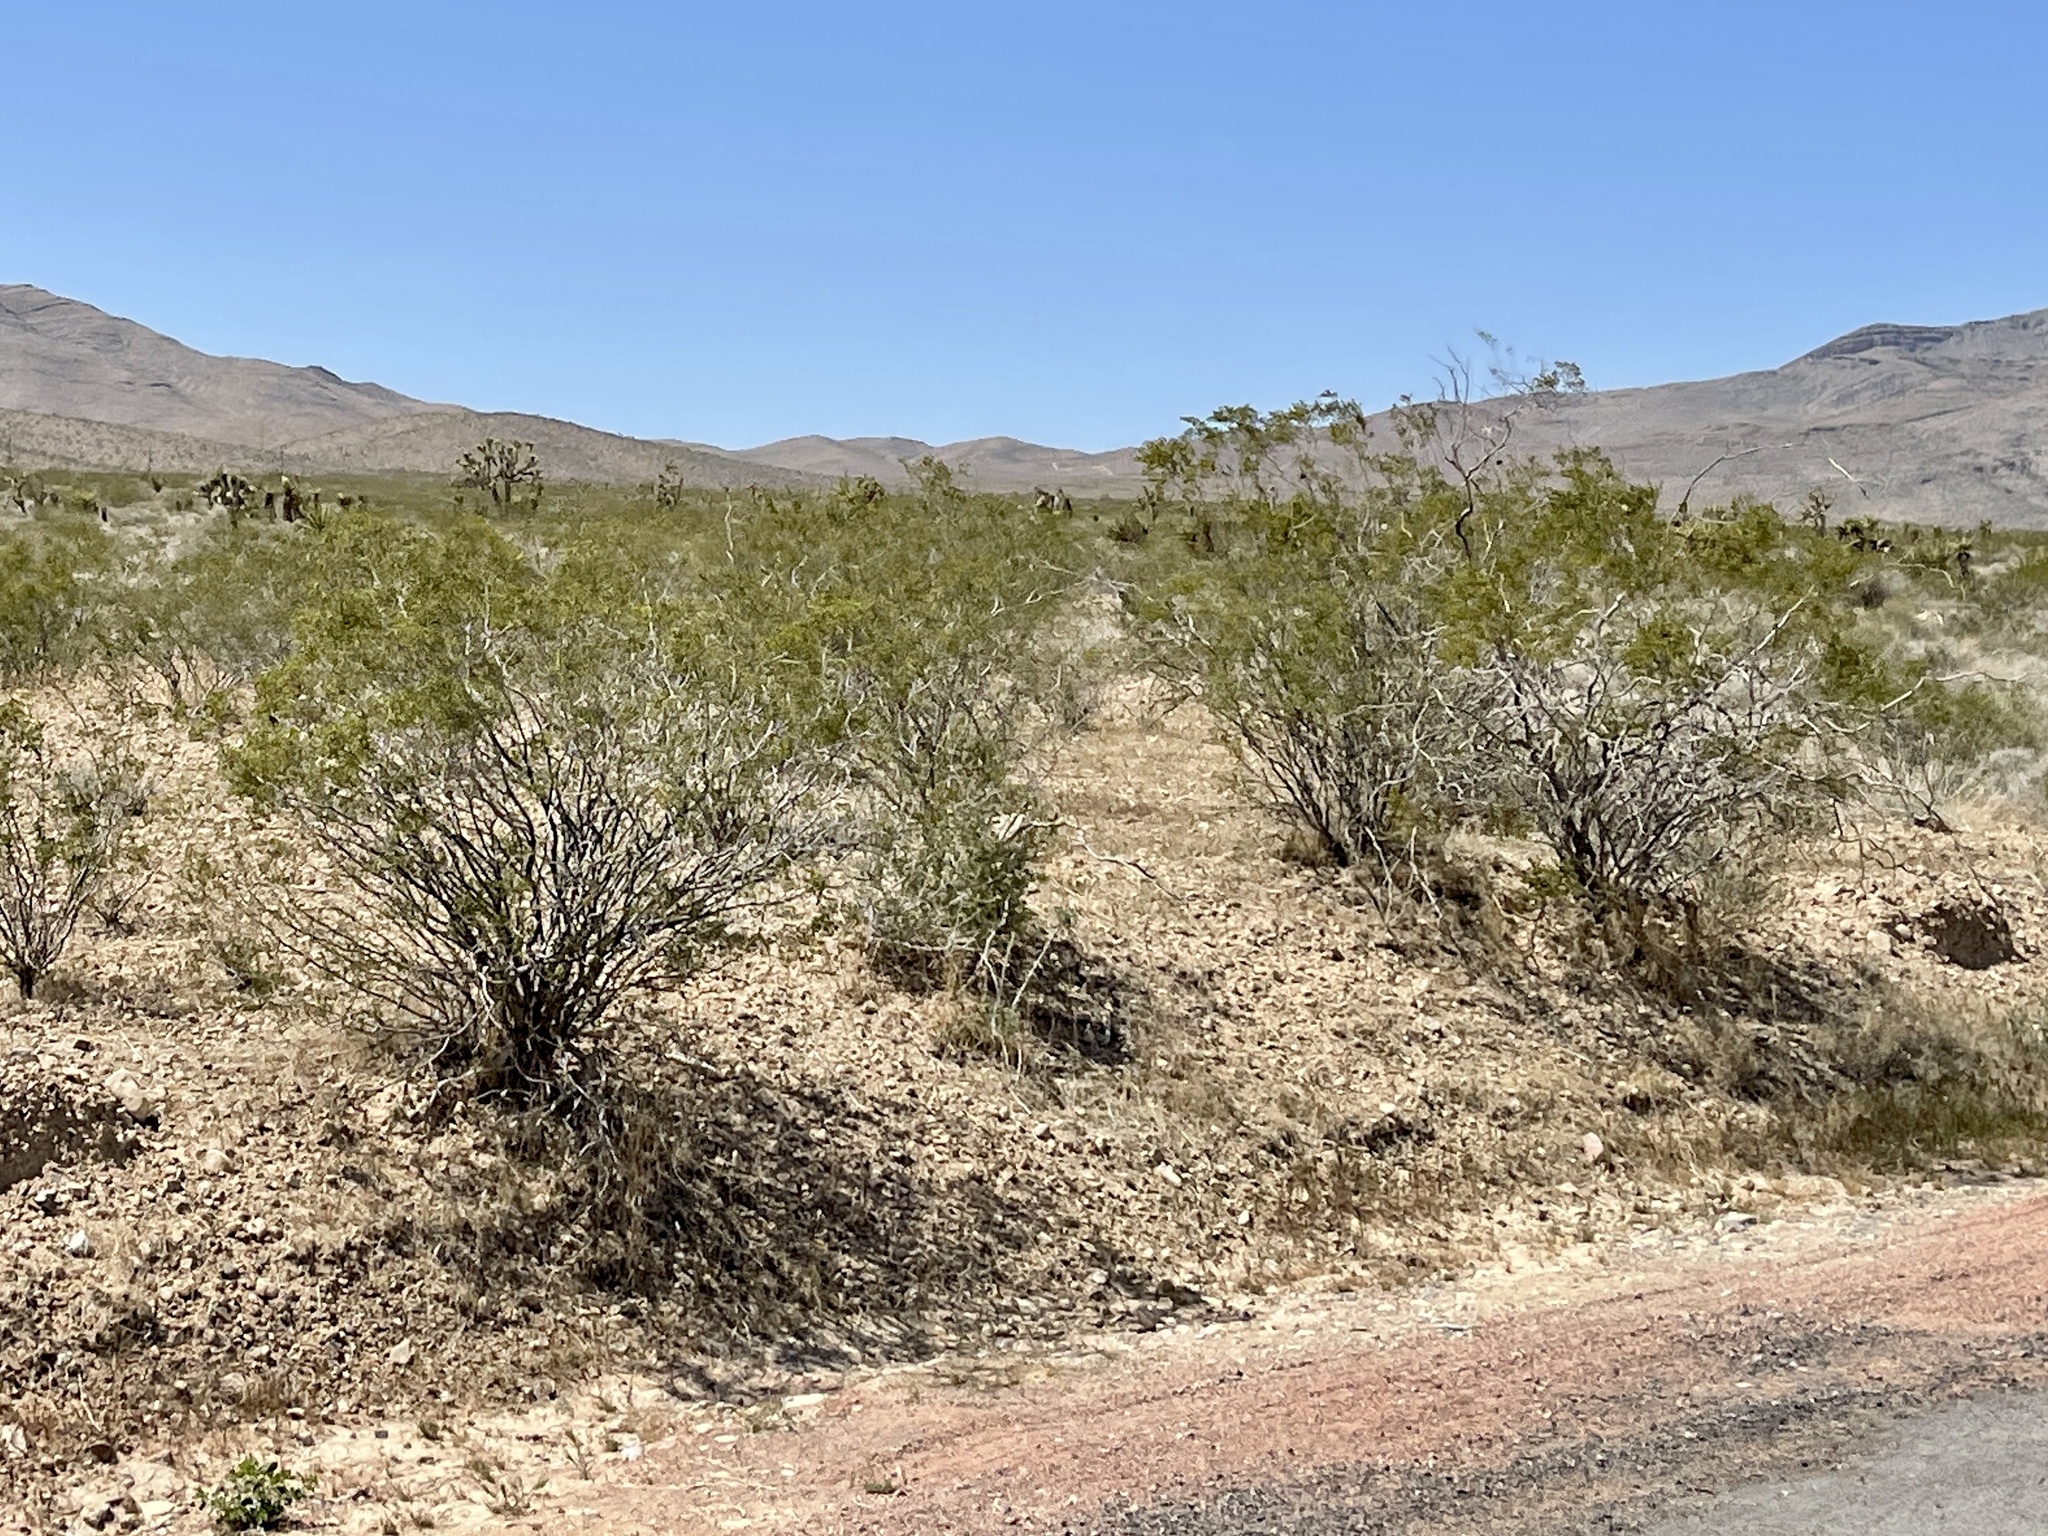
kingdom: Plantae
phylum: Tracheophyta
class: Magnoliopsida
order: Zygophyllales
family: Zygophyllaceae
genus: Larrea
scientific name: Larrea tridentata
